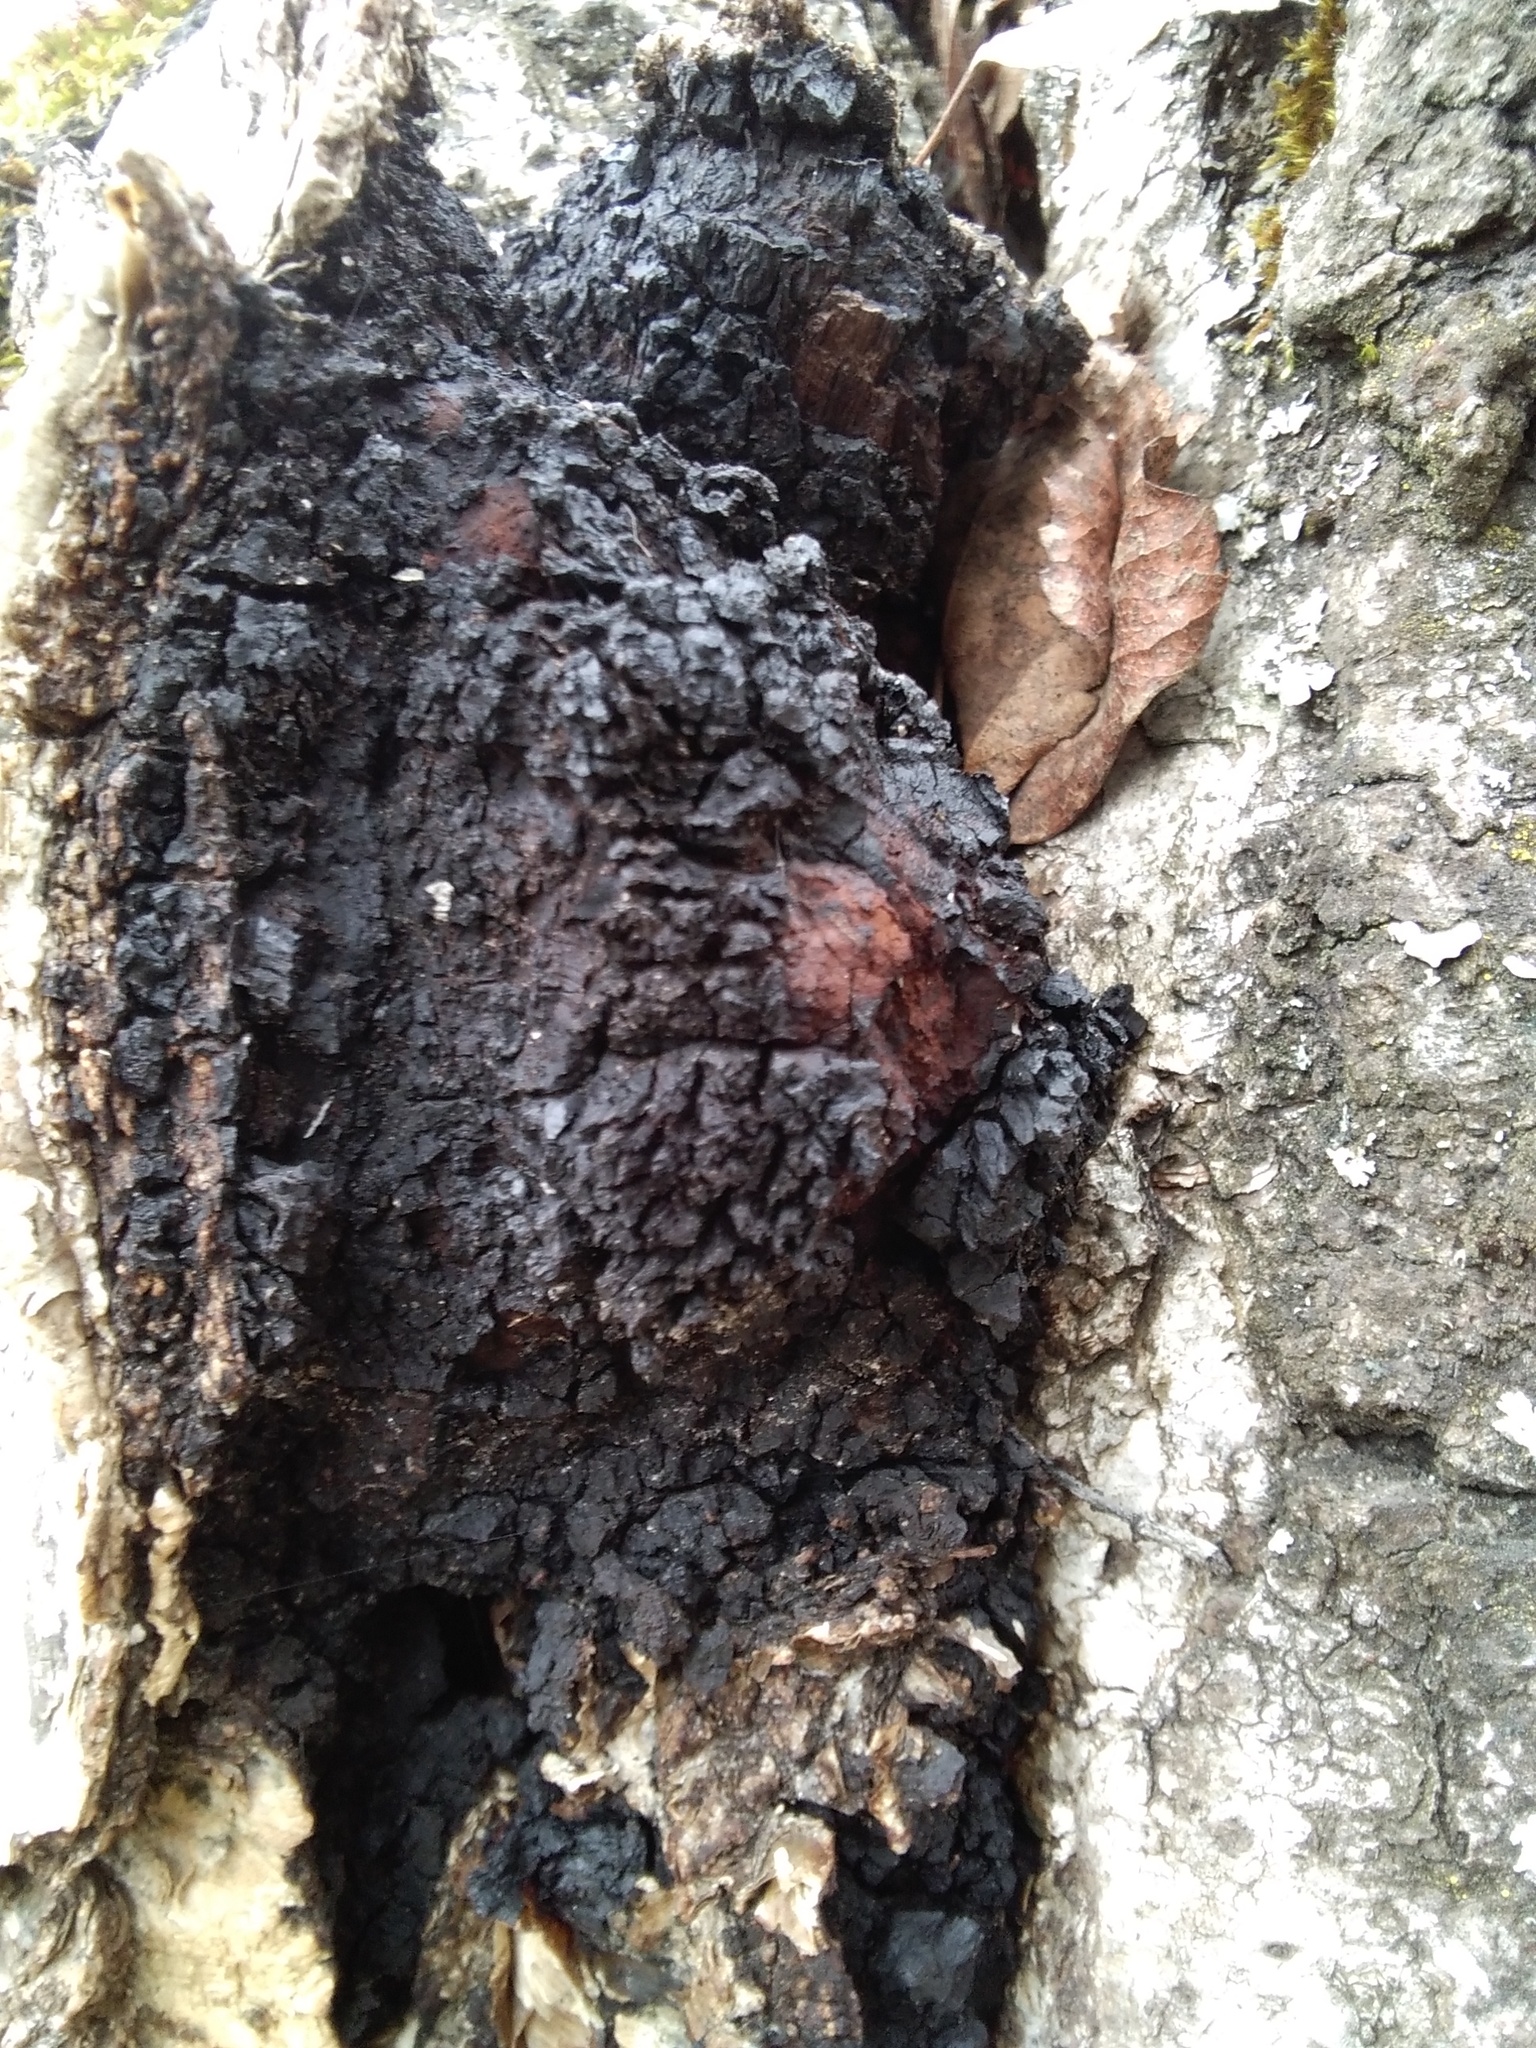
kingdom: Fungi
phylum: Basidiomycota
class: Agaricomycetes
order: Hymenochaetales
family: Hymenochaetaceae
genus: Inonotus
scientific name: Inonotus obliquus
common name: Chaga
